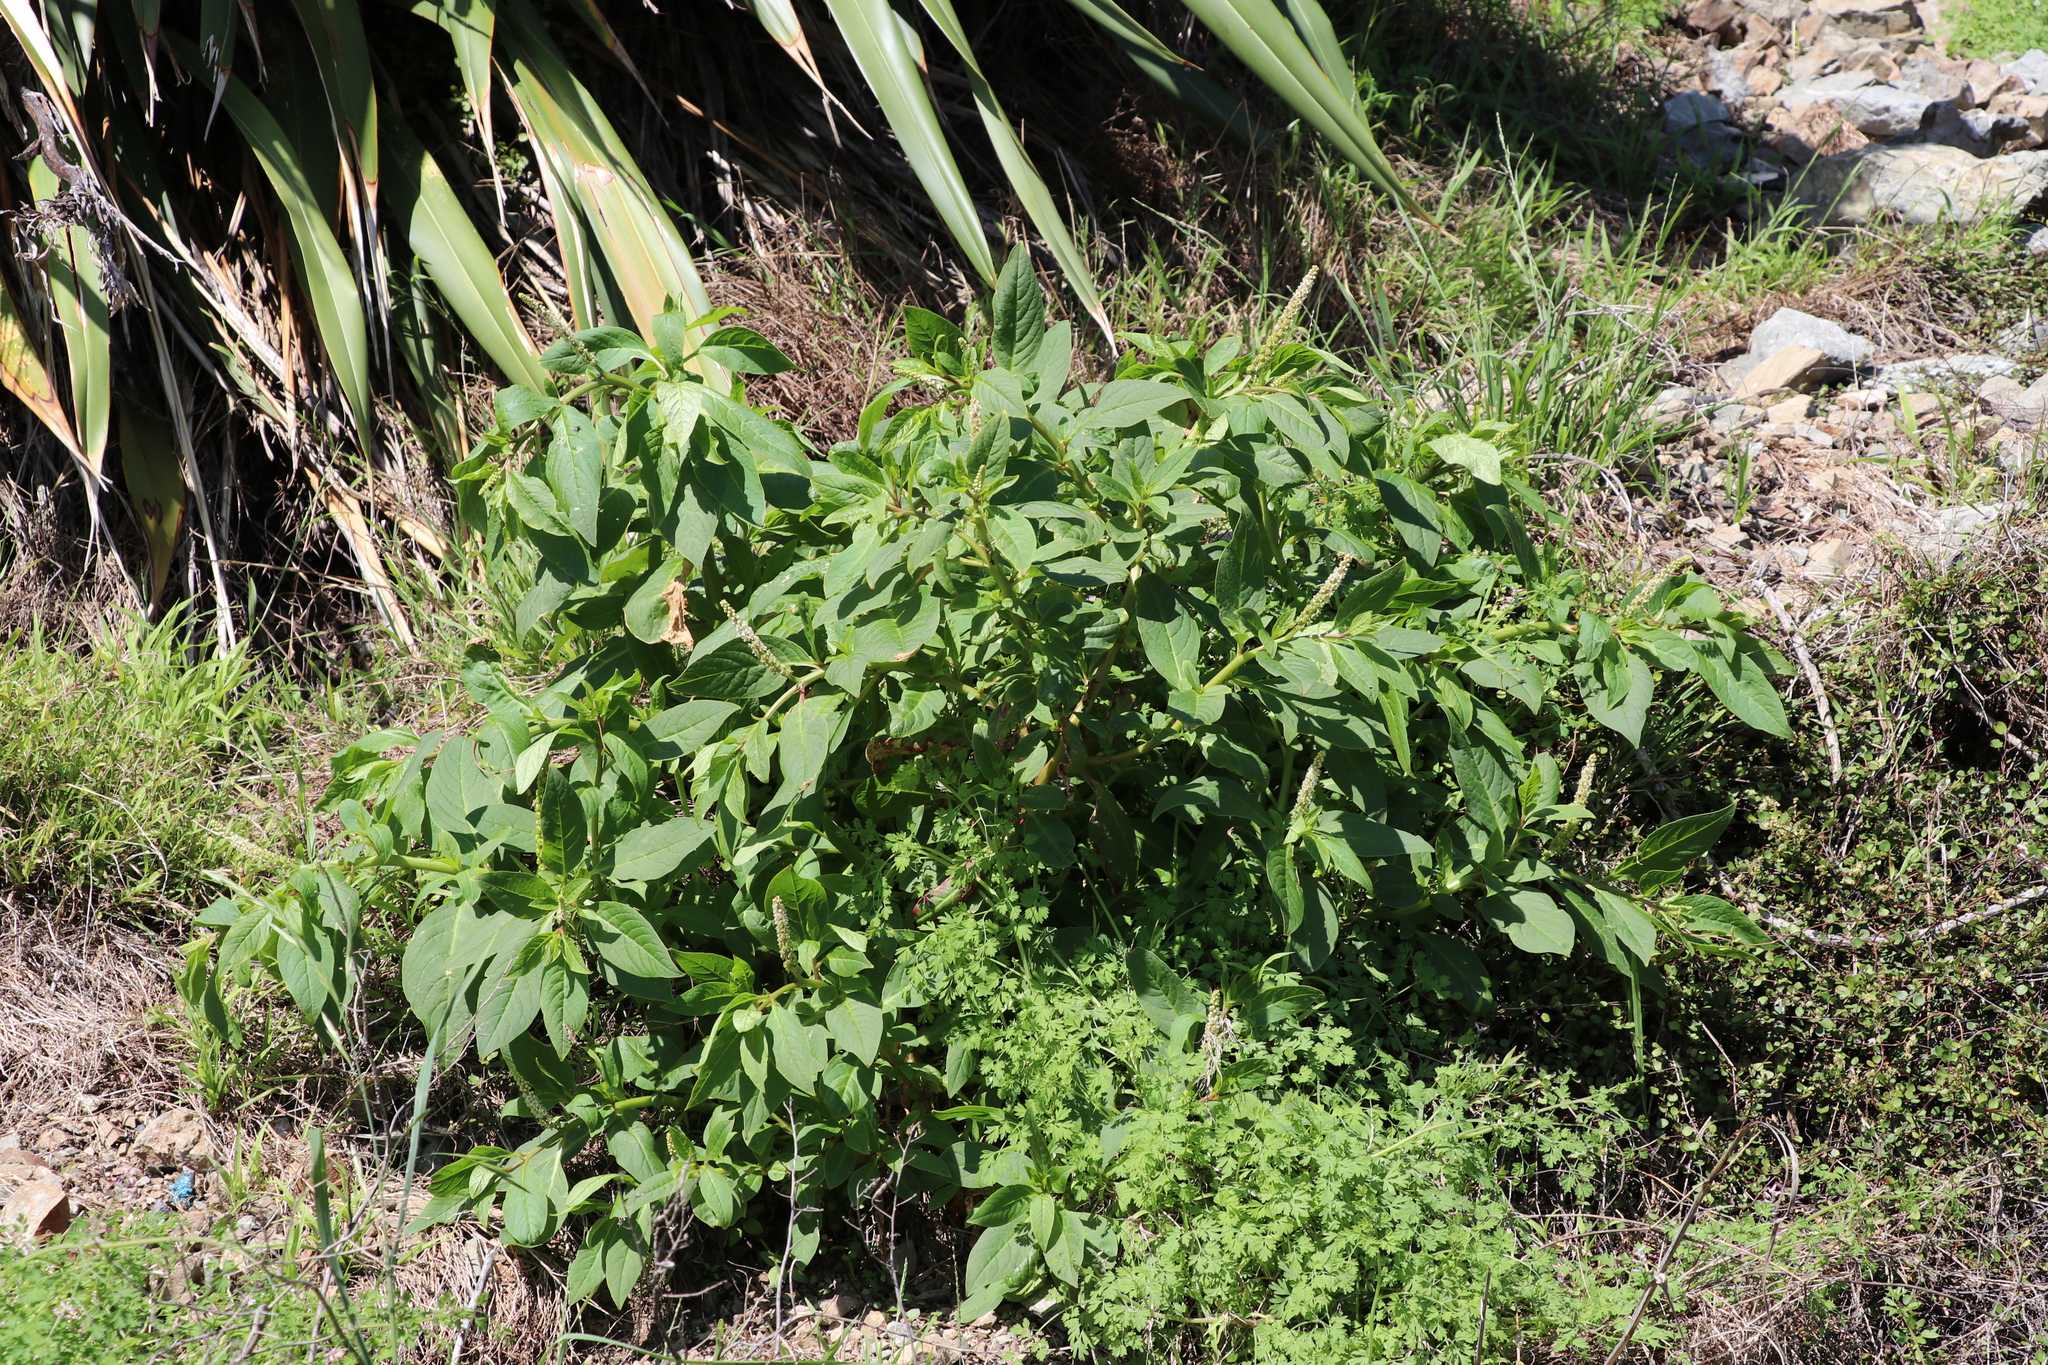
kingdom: Plantae
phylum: Tracheophyta
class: Magnoliopsida
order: Caryophyllales
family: Phytolaccaceae
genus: Phytolacca
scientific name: Phytolacca icosandra
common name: Button pokeweed
